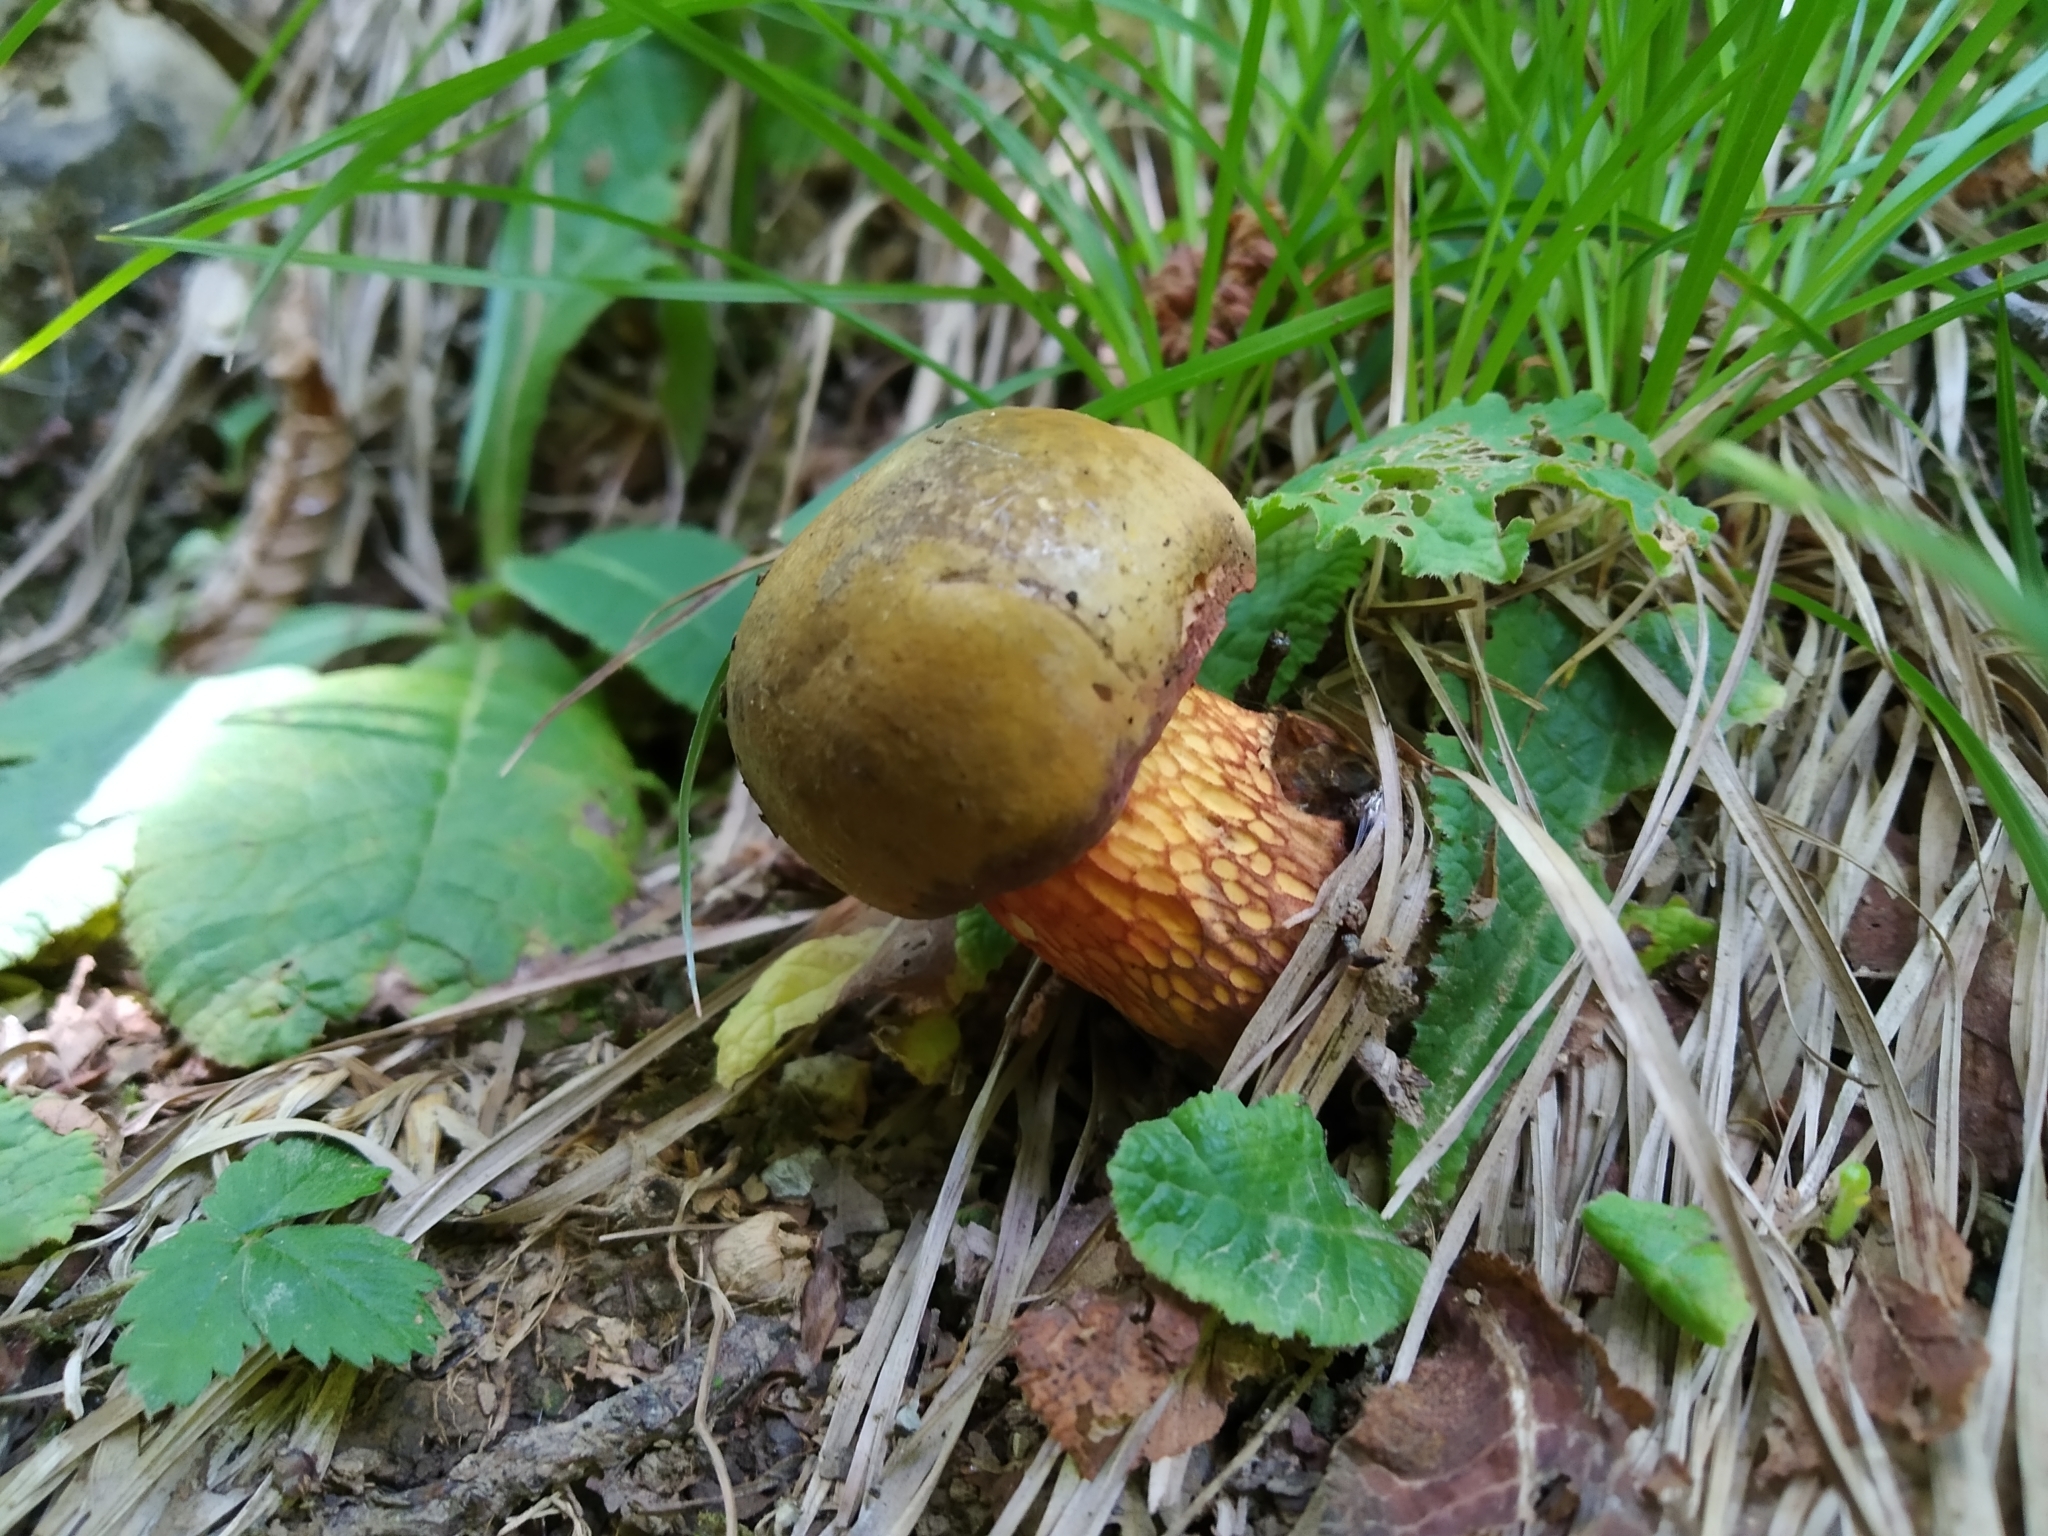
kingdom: Fungi
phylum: Basidiomycota
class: Agaricomycetes
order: Boletales
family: Boletaceae
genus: Suillellus
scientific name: Suillellus luridus
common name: Lurid bolete
